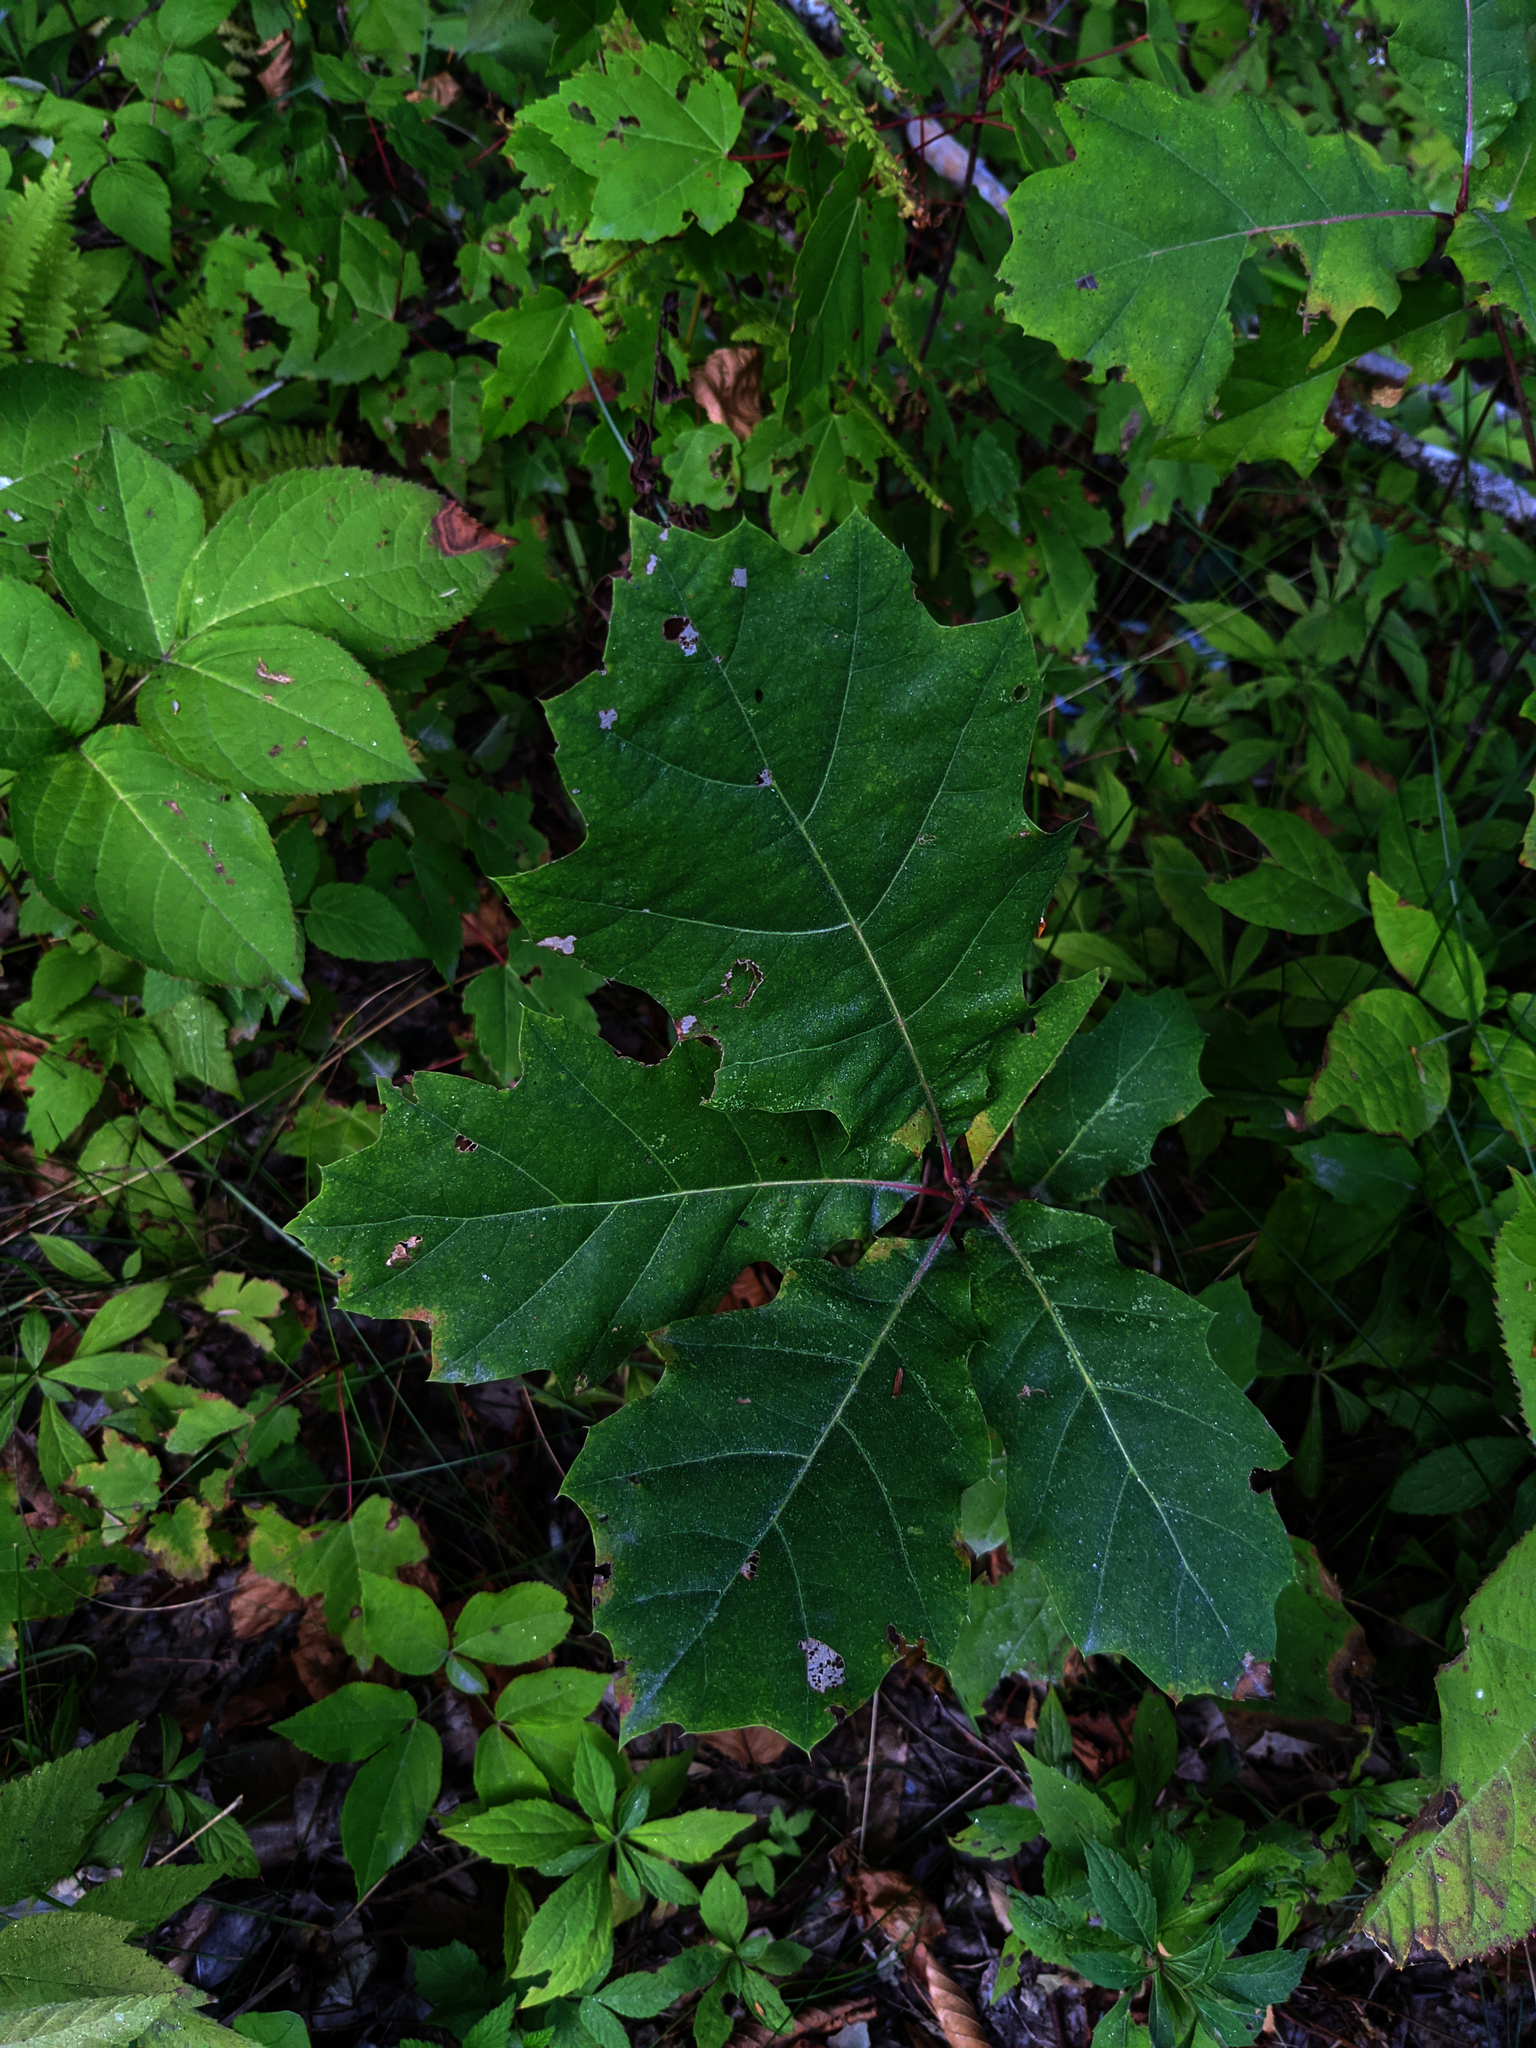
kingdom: Plantae
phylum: Tracheophyta
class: Magnoliopsida
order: Fagales
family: Fagaceae
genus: Quercus
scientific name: Quercus rubra
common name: Red oak
